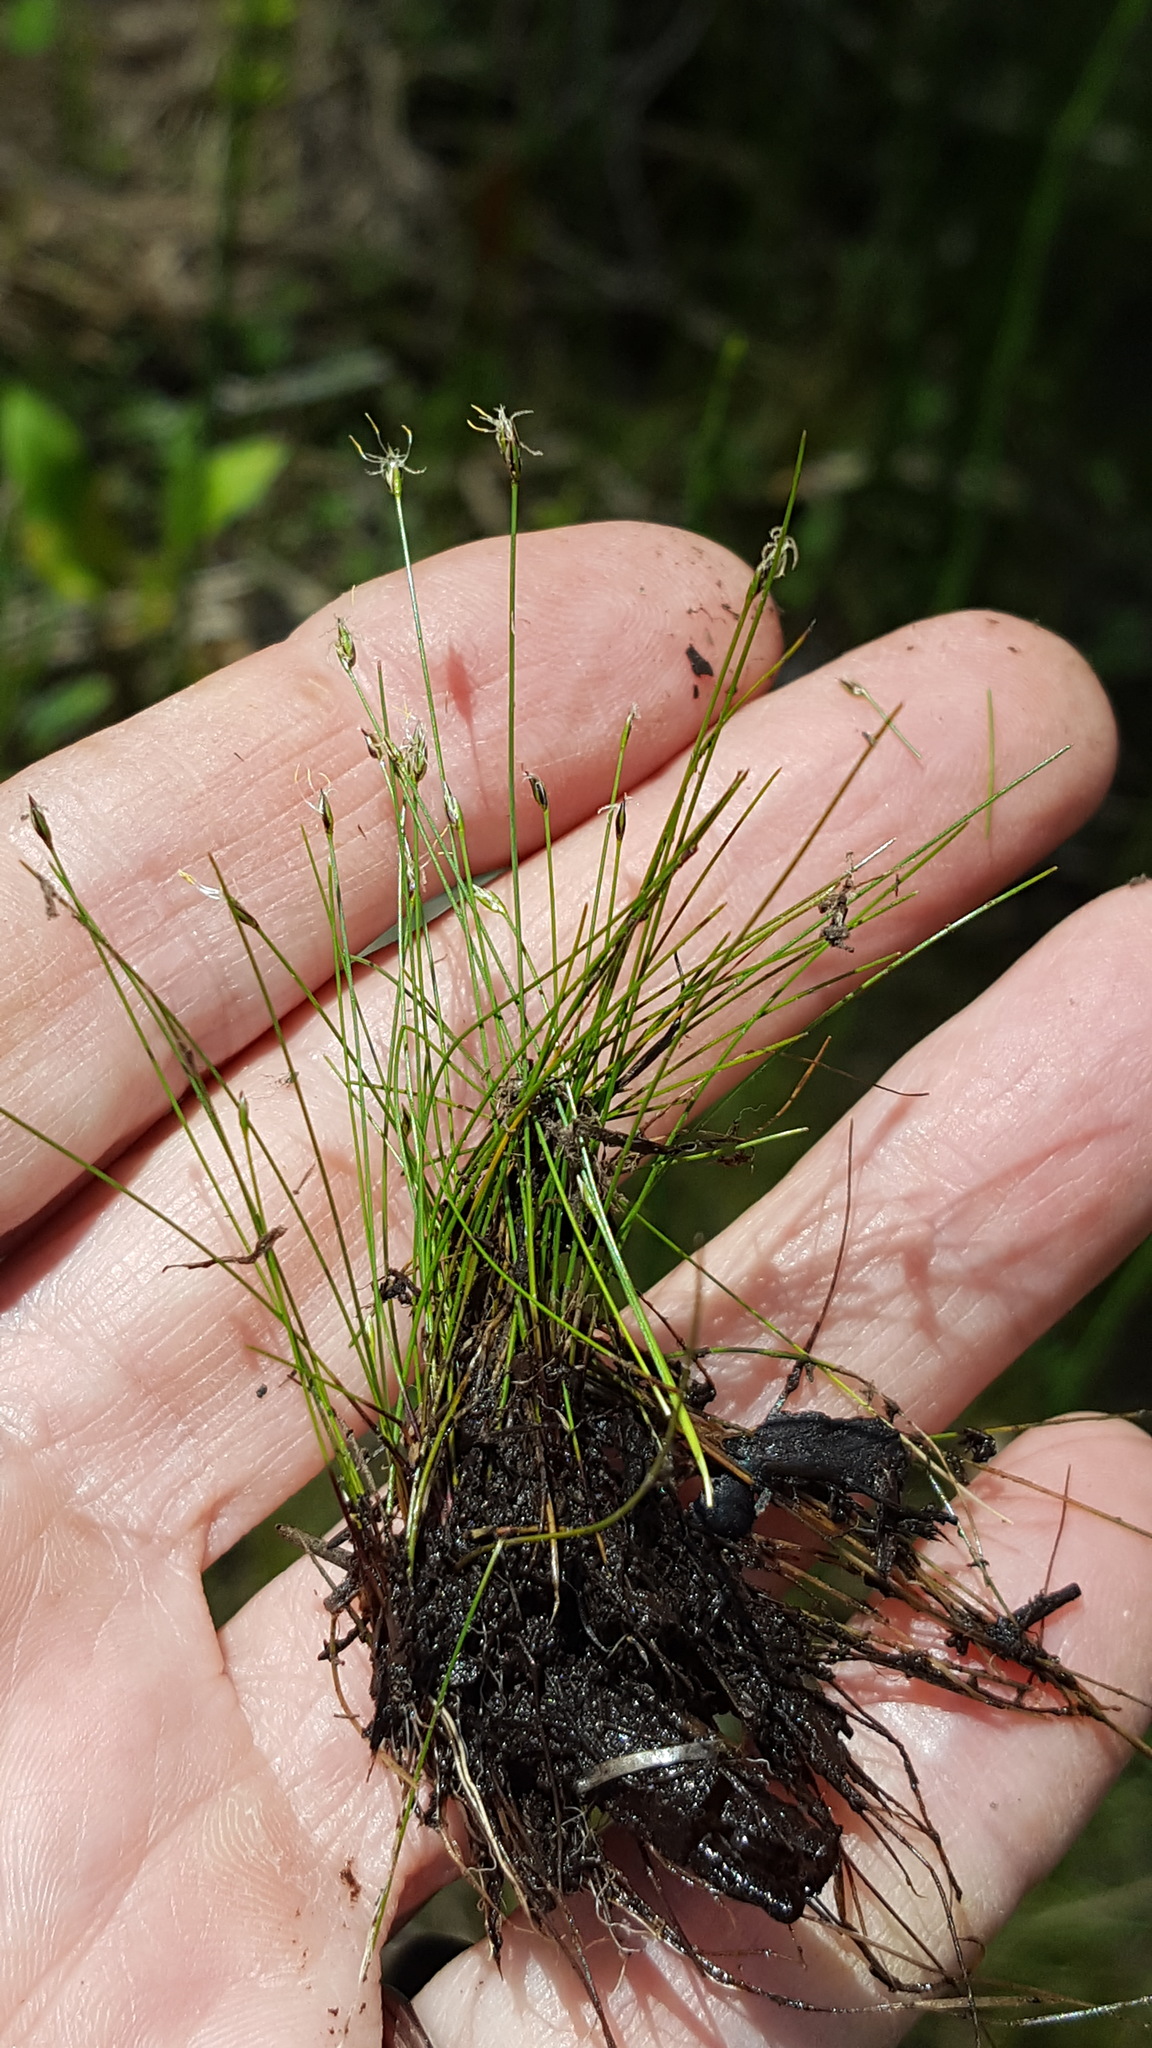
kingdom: Plantae
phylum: Tracheophyta
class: Liliopsida
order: Poales
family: Cyperaceae
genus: Eleocharis
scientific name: Eleocharis acicularis
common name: Needle spike-rush
